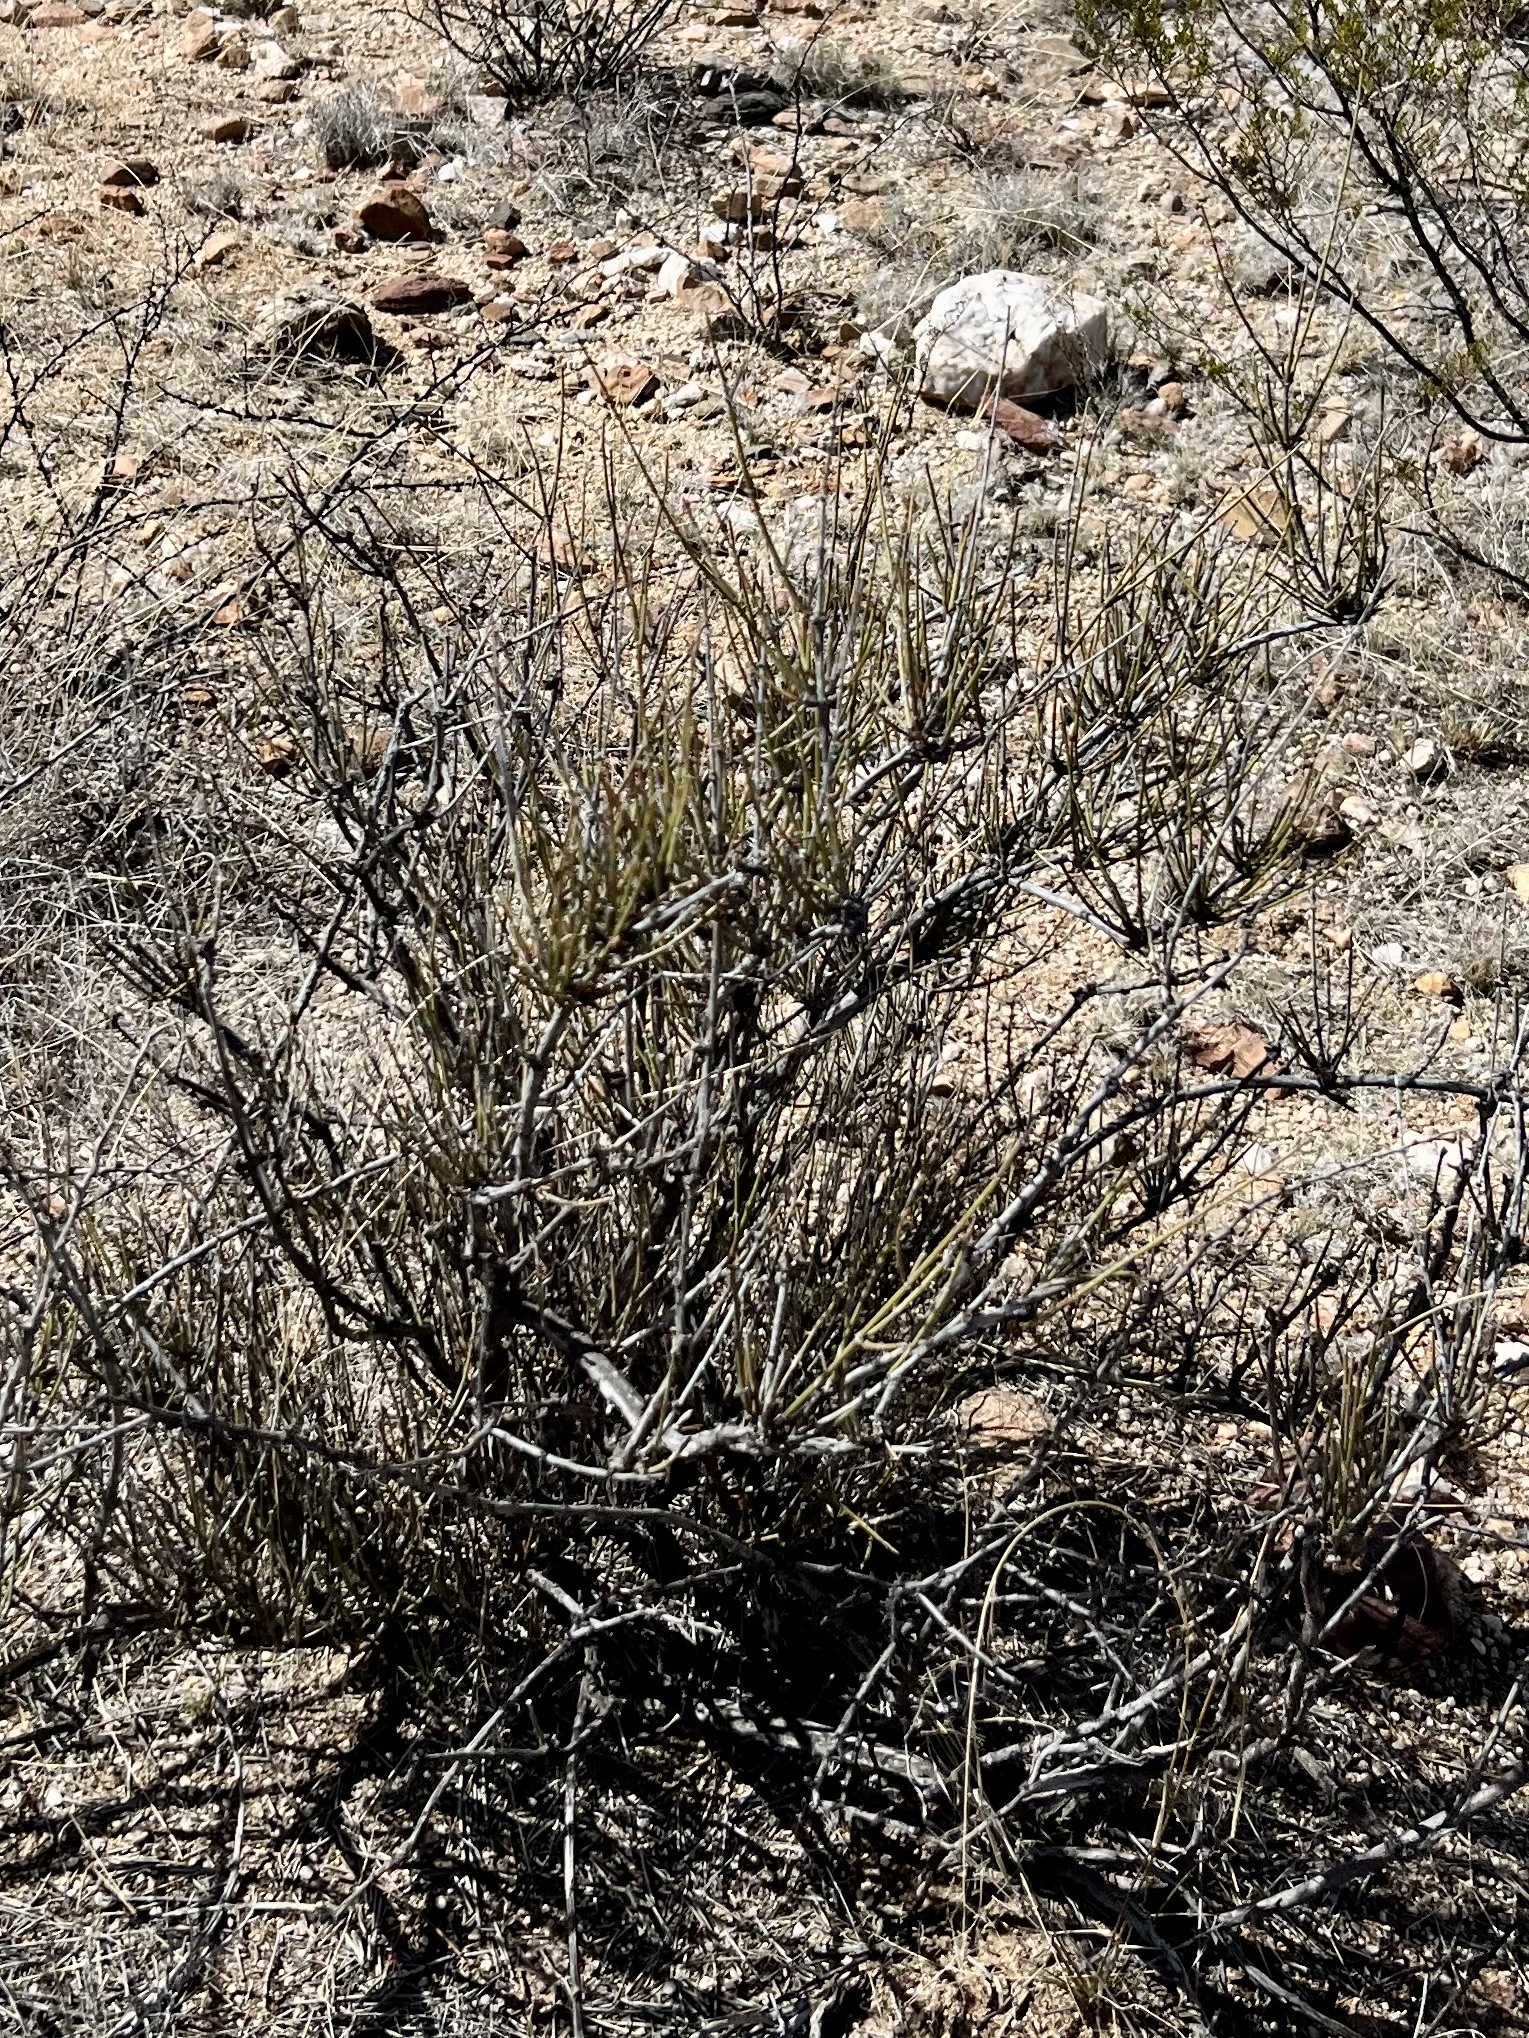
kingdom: Plantae
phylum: Tracheophyta
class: Gnetopsida
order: Ephedrales
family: Ephedraceae
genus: Ephedra
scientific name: Ephedra trifurca
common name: Mexican-tea
